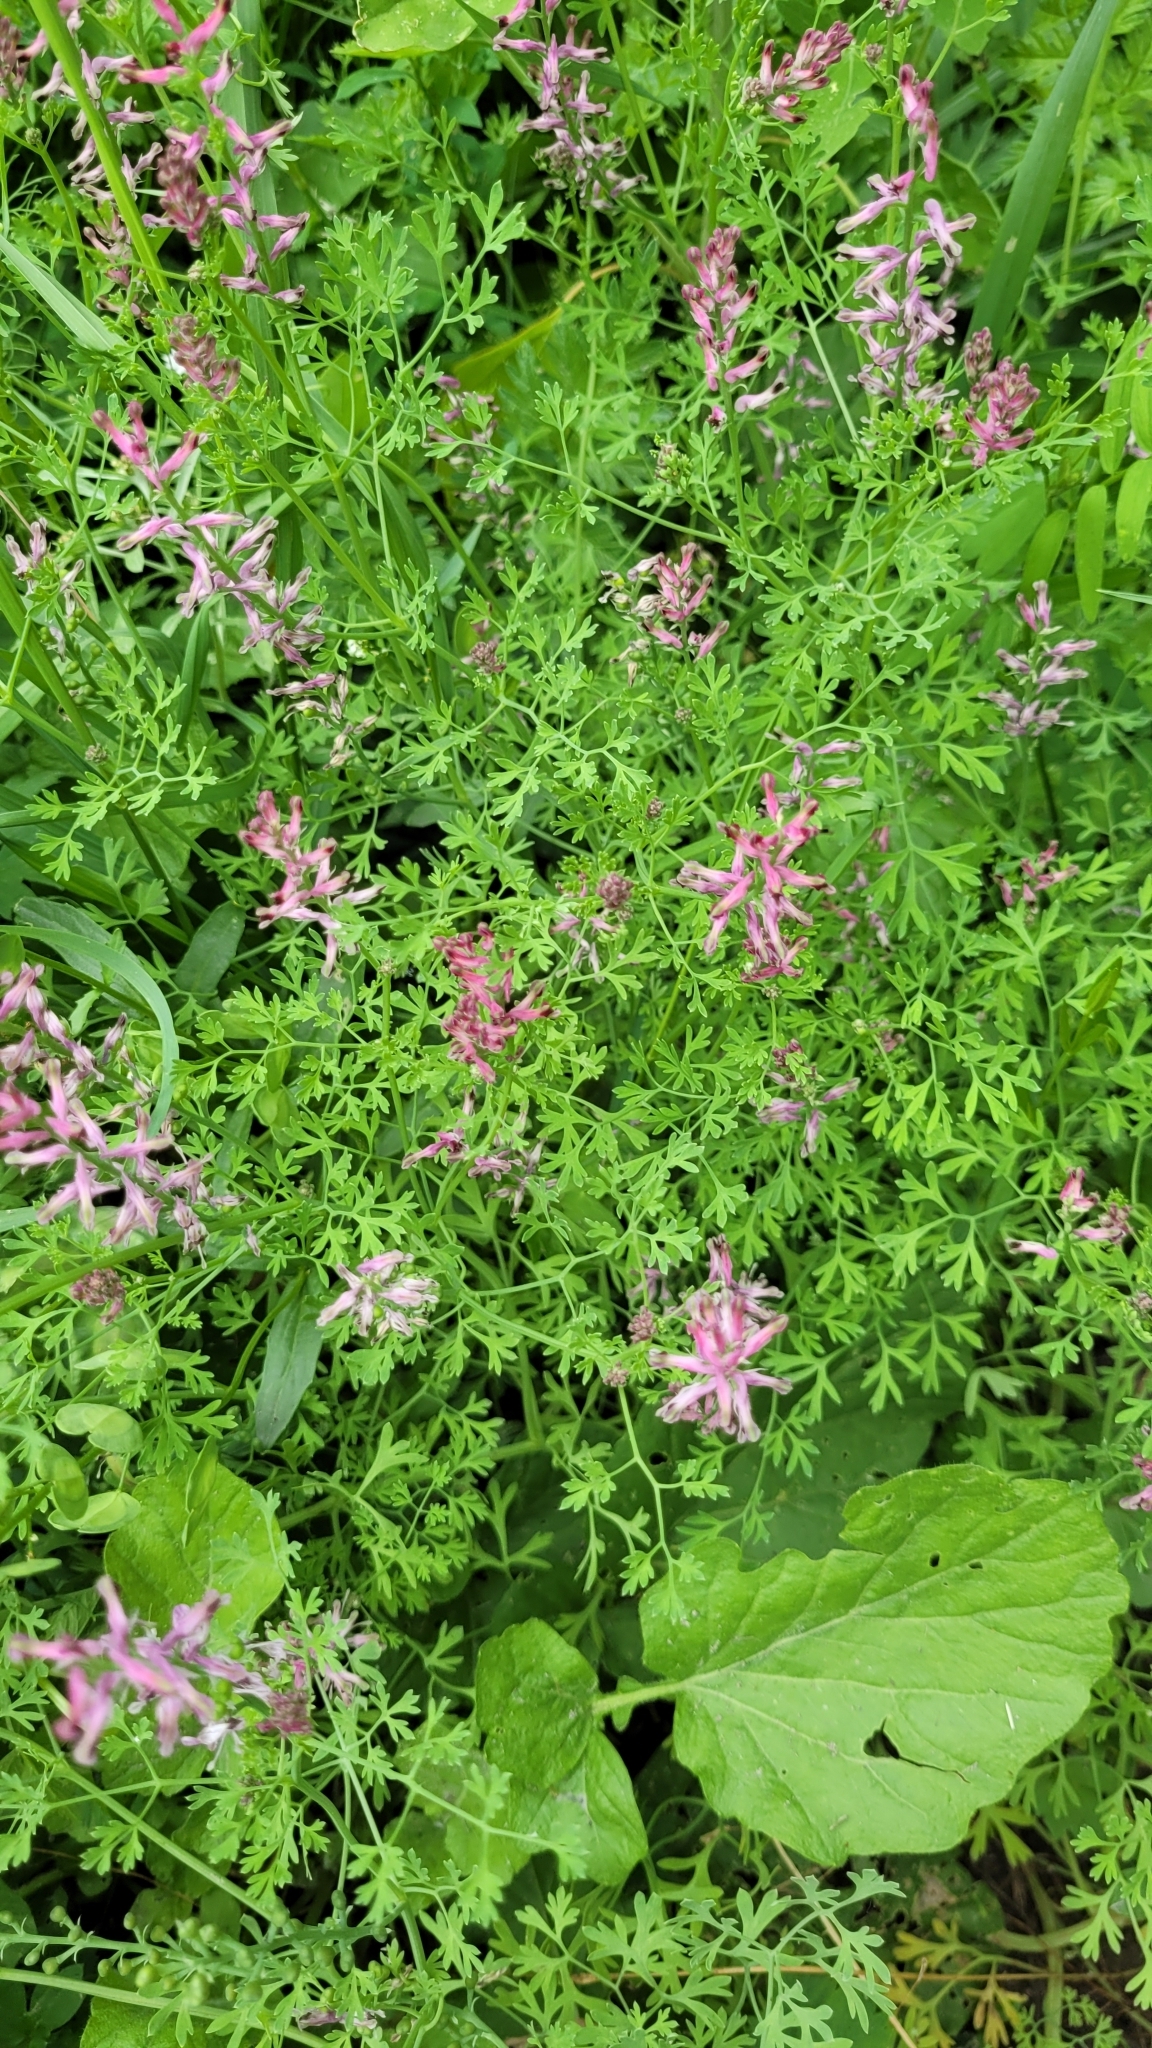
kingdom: Plantae
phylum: Tracheophyta
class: Magnoliopsida
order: Ranunculales
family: Papaveraceae
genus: Fumaria
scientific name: Fumaria officinalis
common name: Common fumitory
